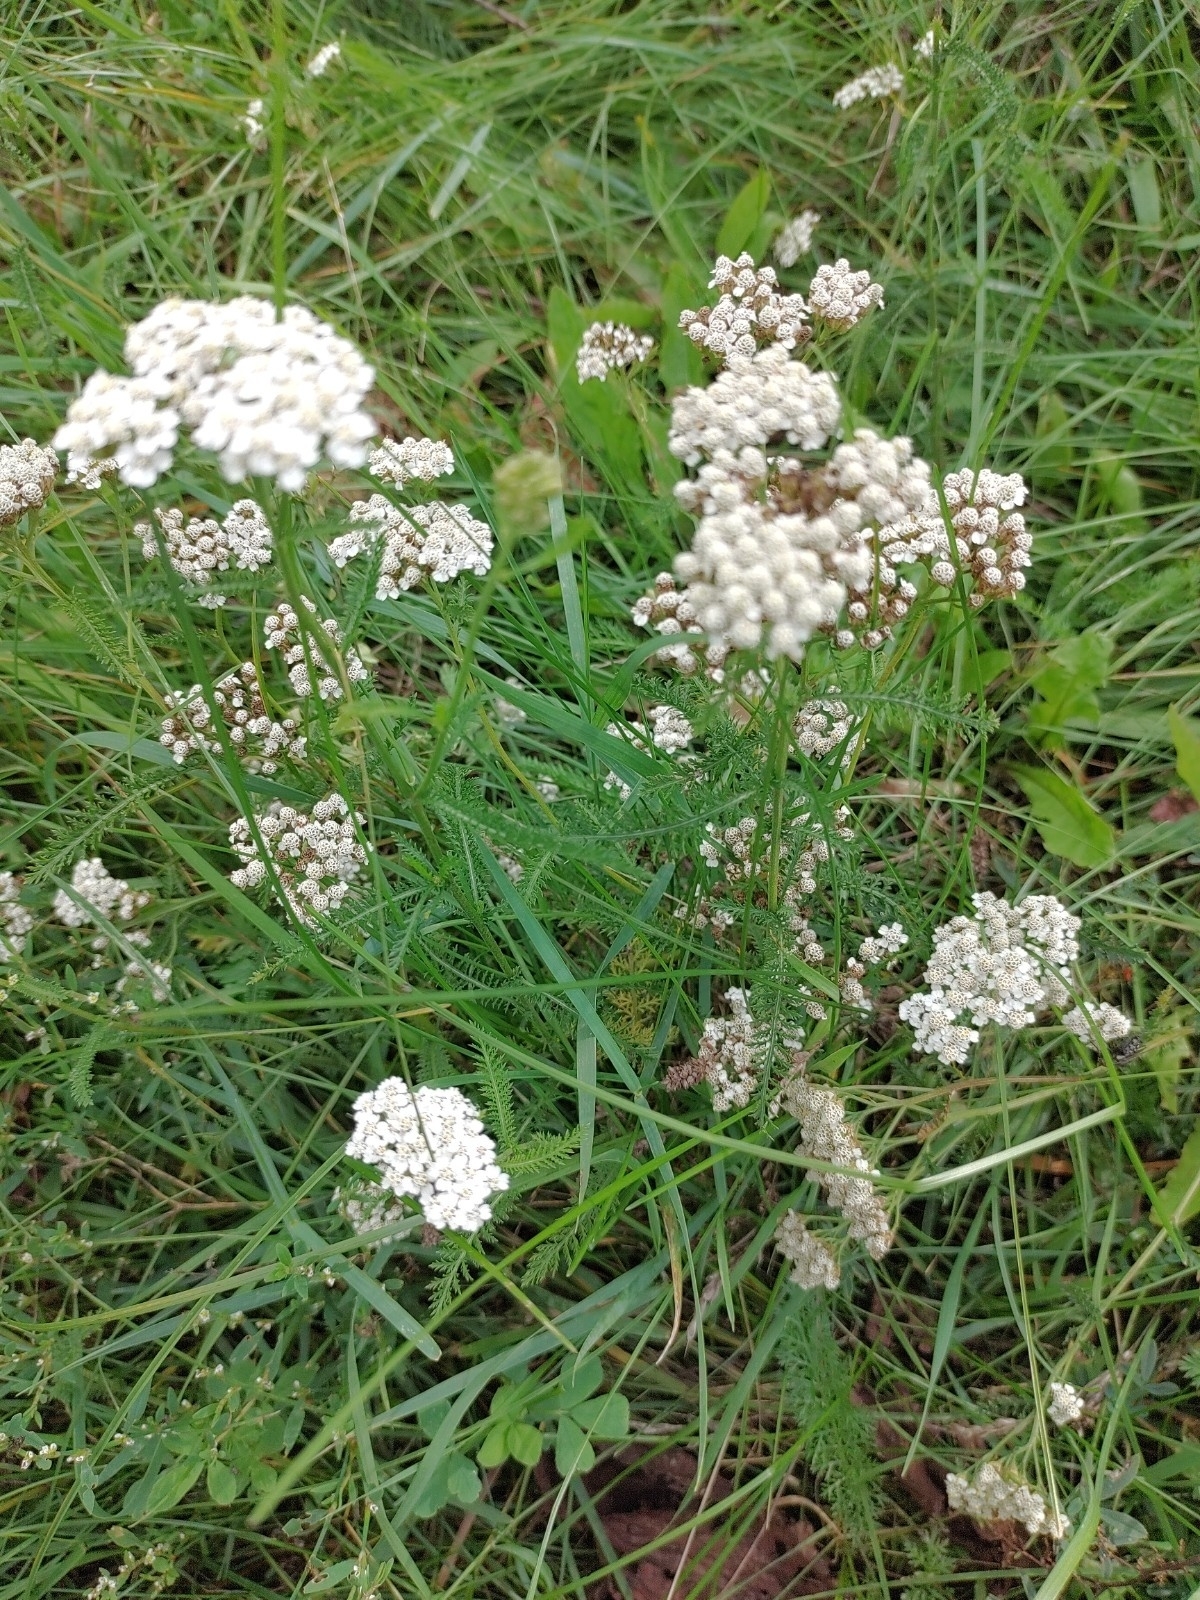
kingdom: Plantae
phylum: Tracheophyta
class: Magnoliopsida
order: Asterales
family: Asteraceae
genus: Achillea
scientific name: Achillea millefolium
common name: Yarrow
